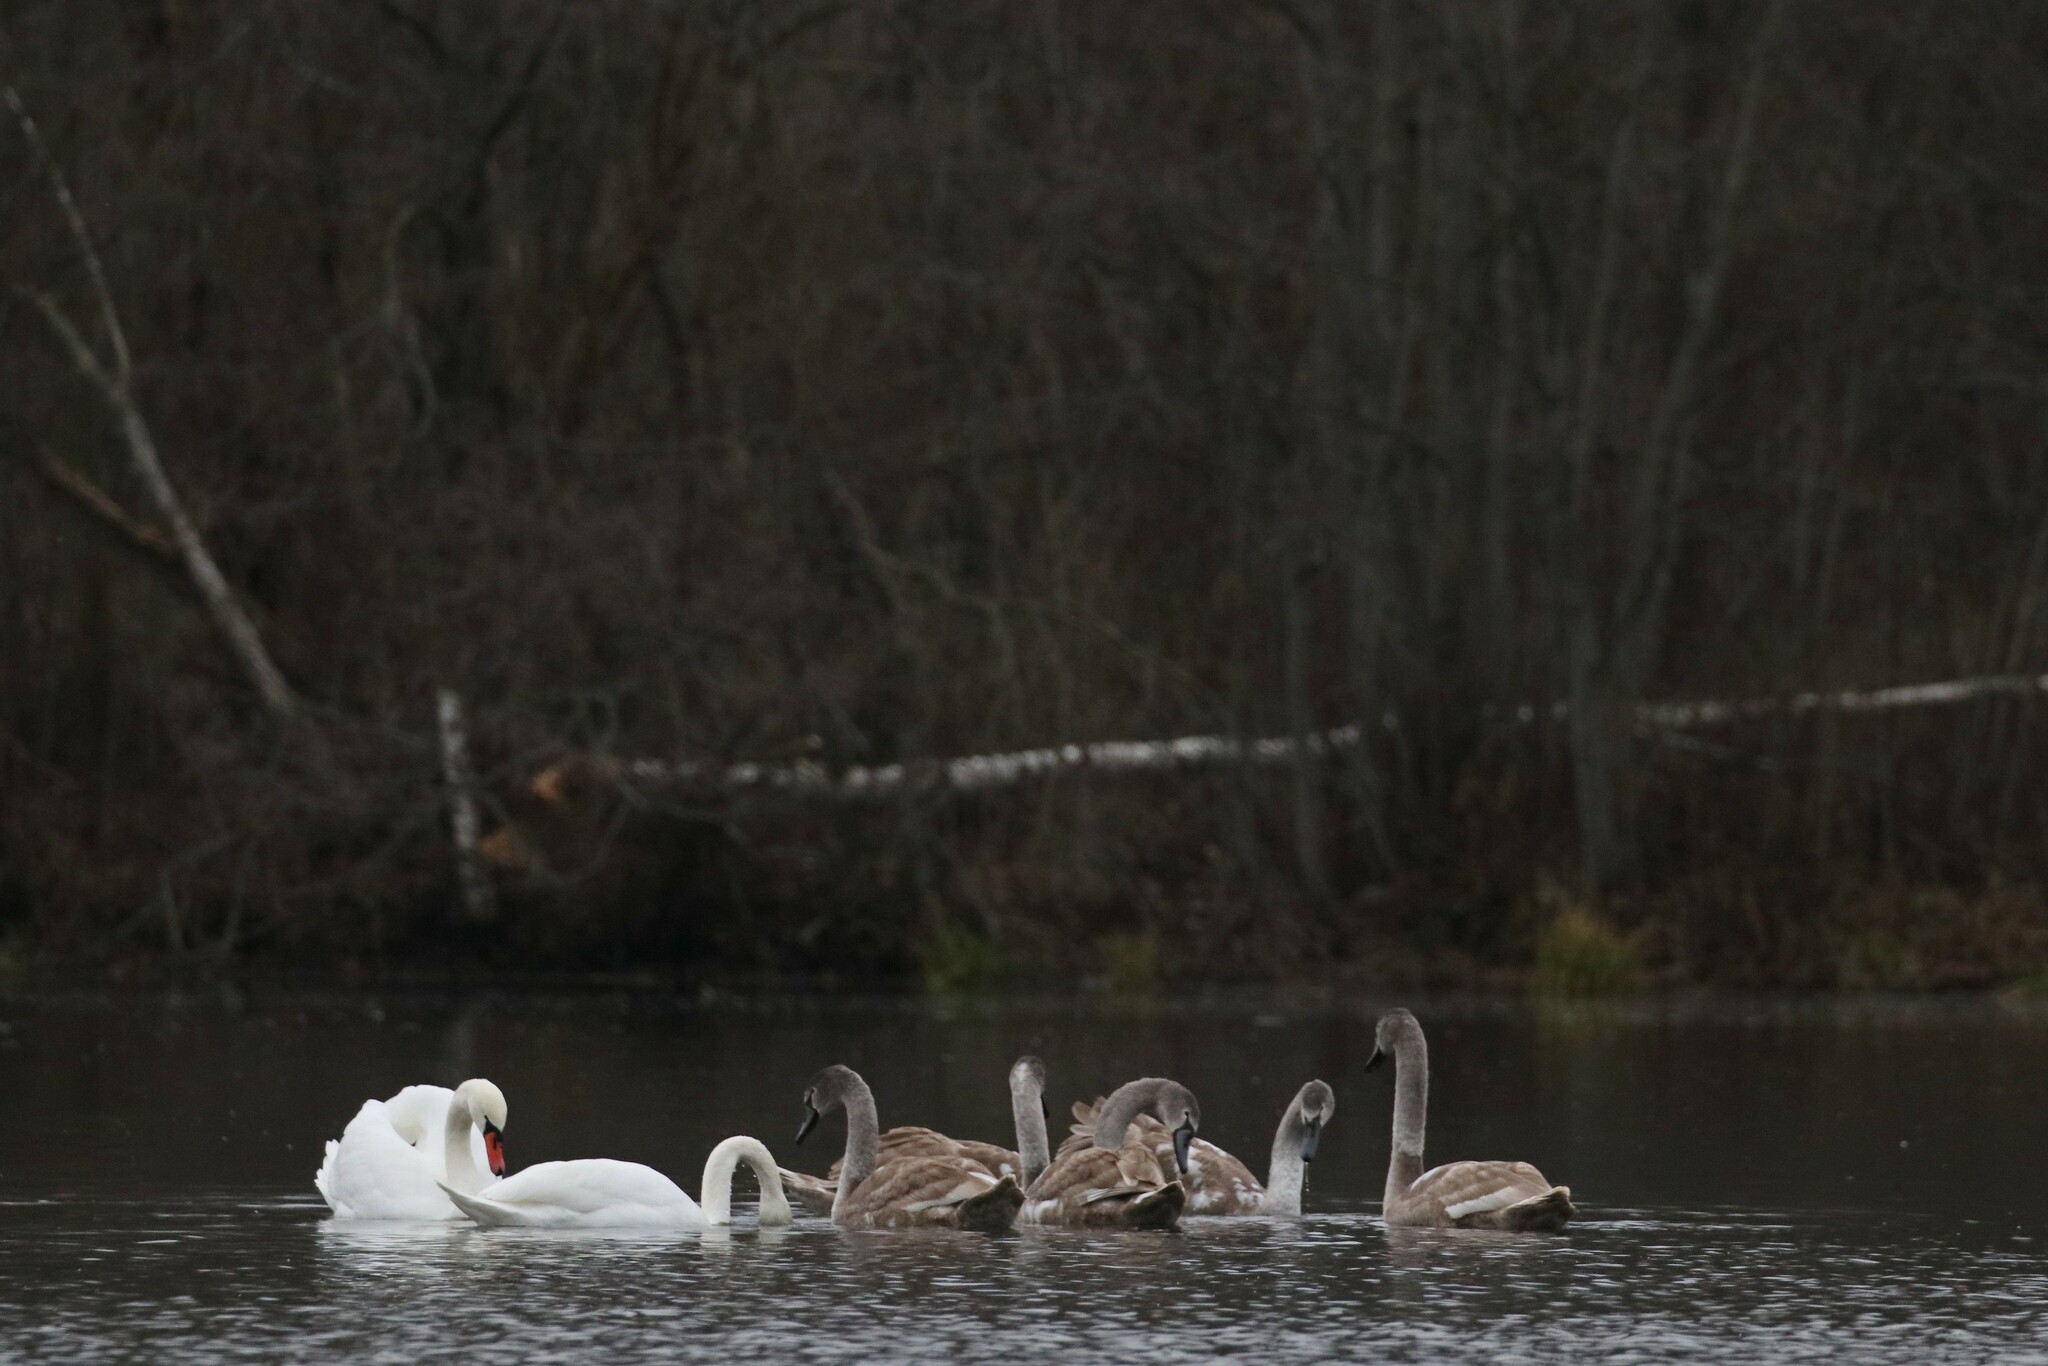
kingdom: Animalia
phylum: Chordata
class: Aves
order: Anseriformes
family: Anatidae
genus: Cygnus
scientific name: Cygnus olor
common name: Mute swan
